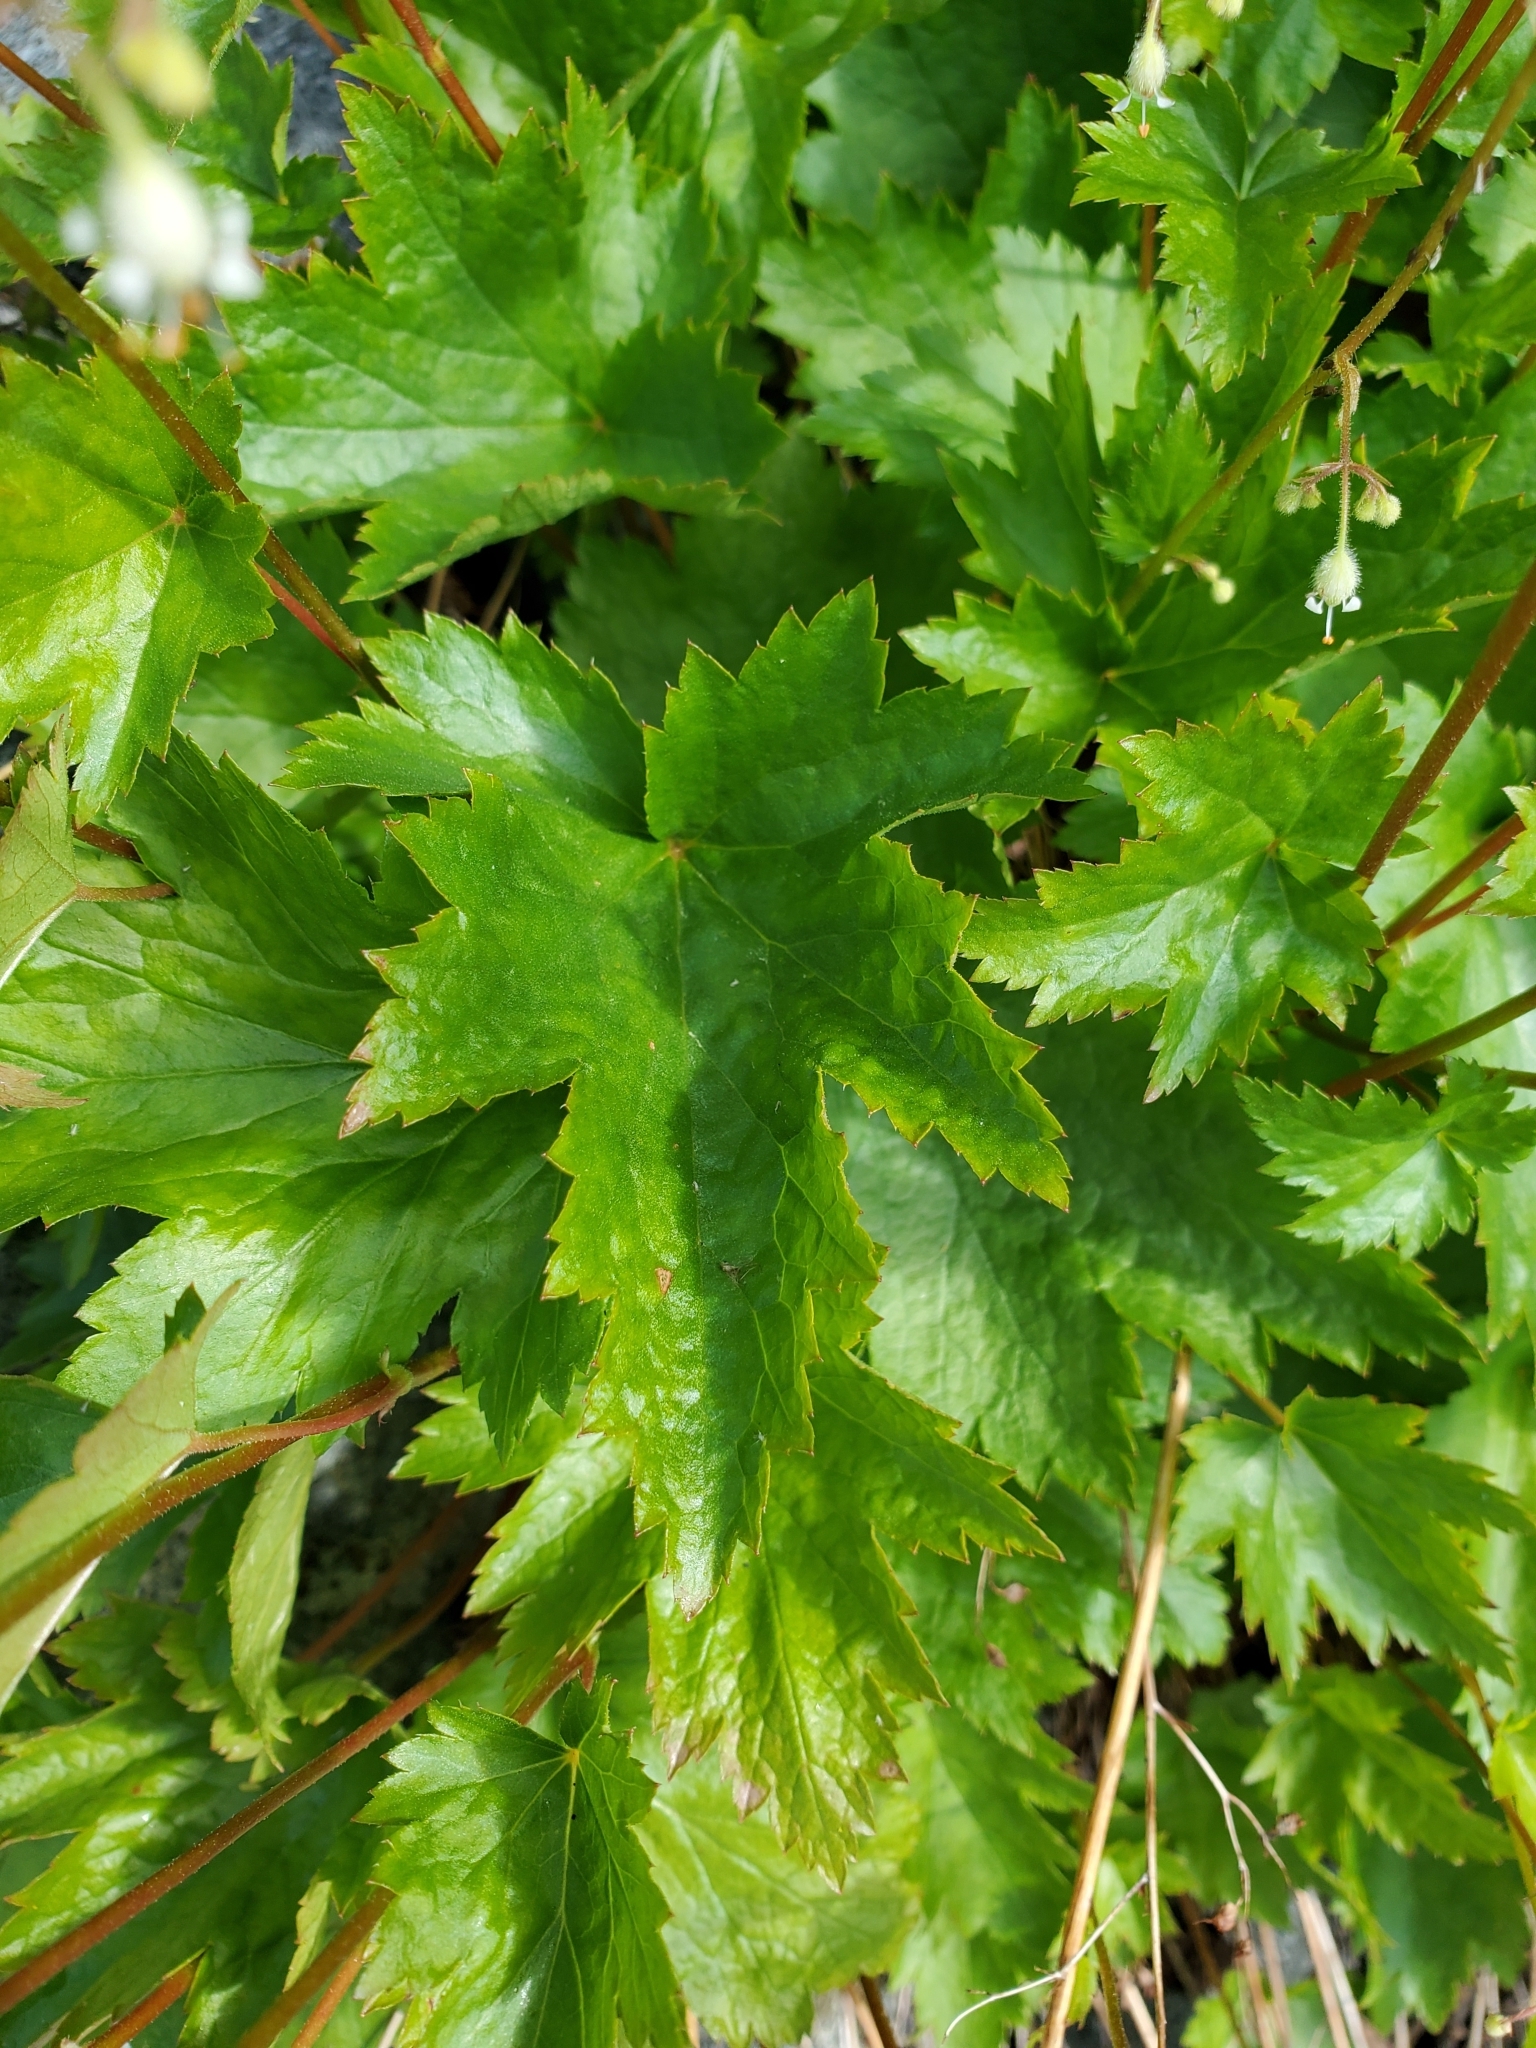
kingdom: Plantae
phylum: Tracheophyta
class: Magnoliopsida
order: Saxifragales
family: Saxifragaceae
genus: Heuchera
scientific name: Heuchera glabra
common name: Alpine alumroot
